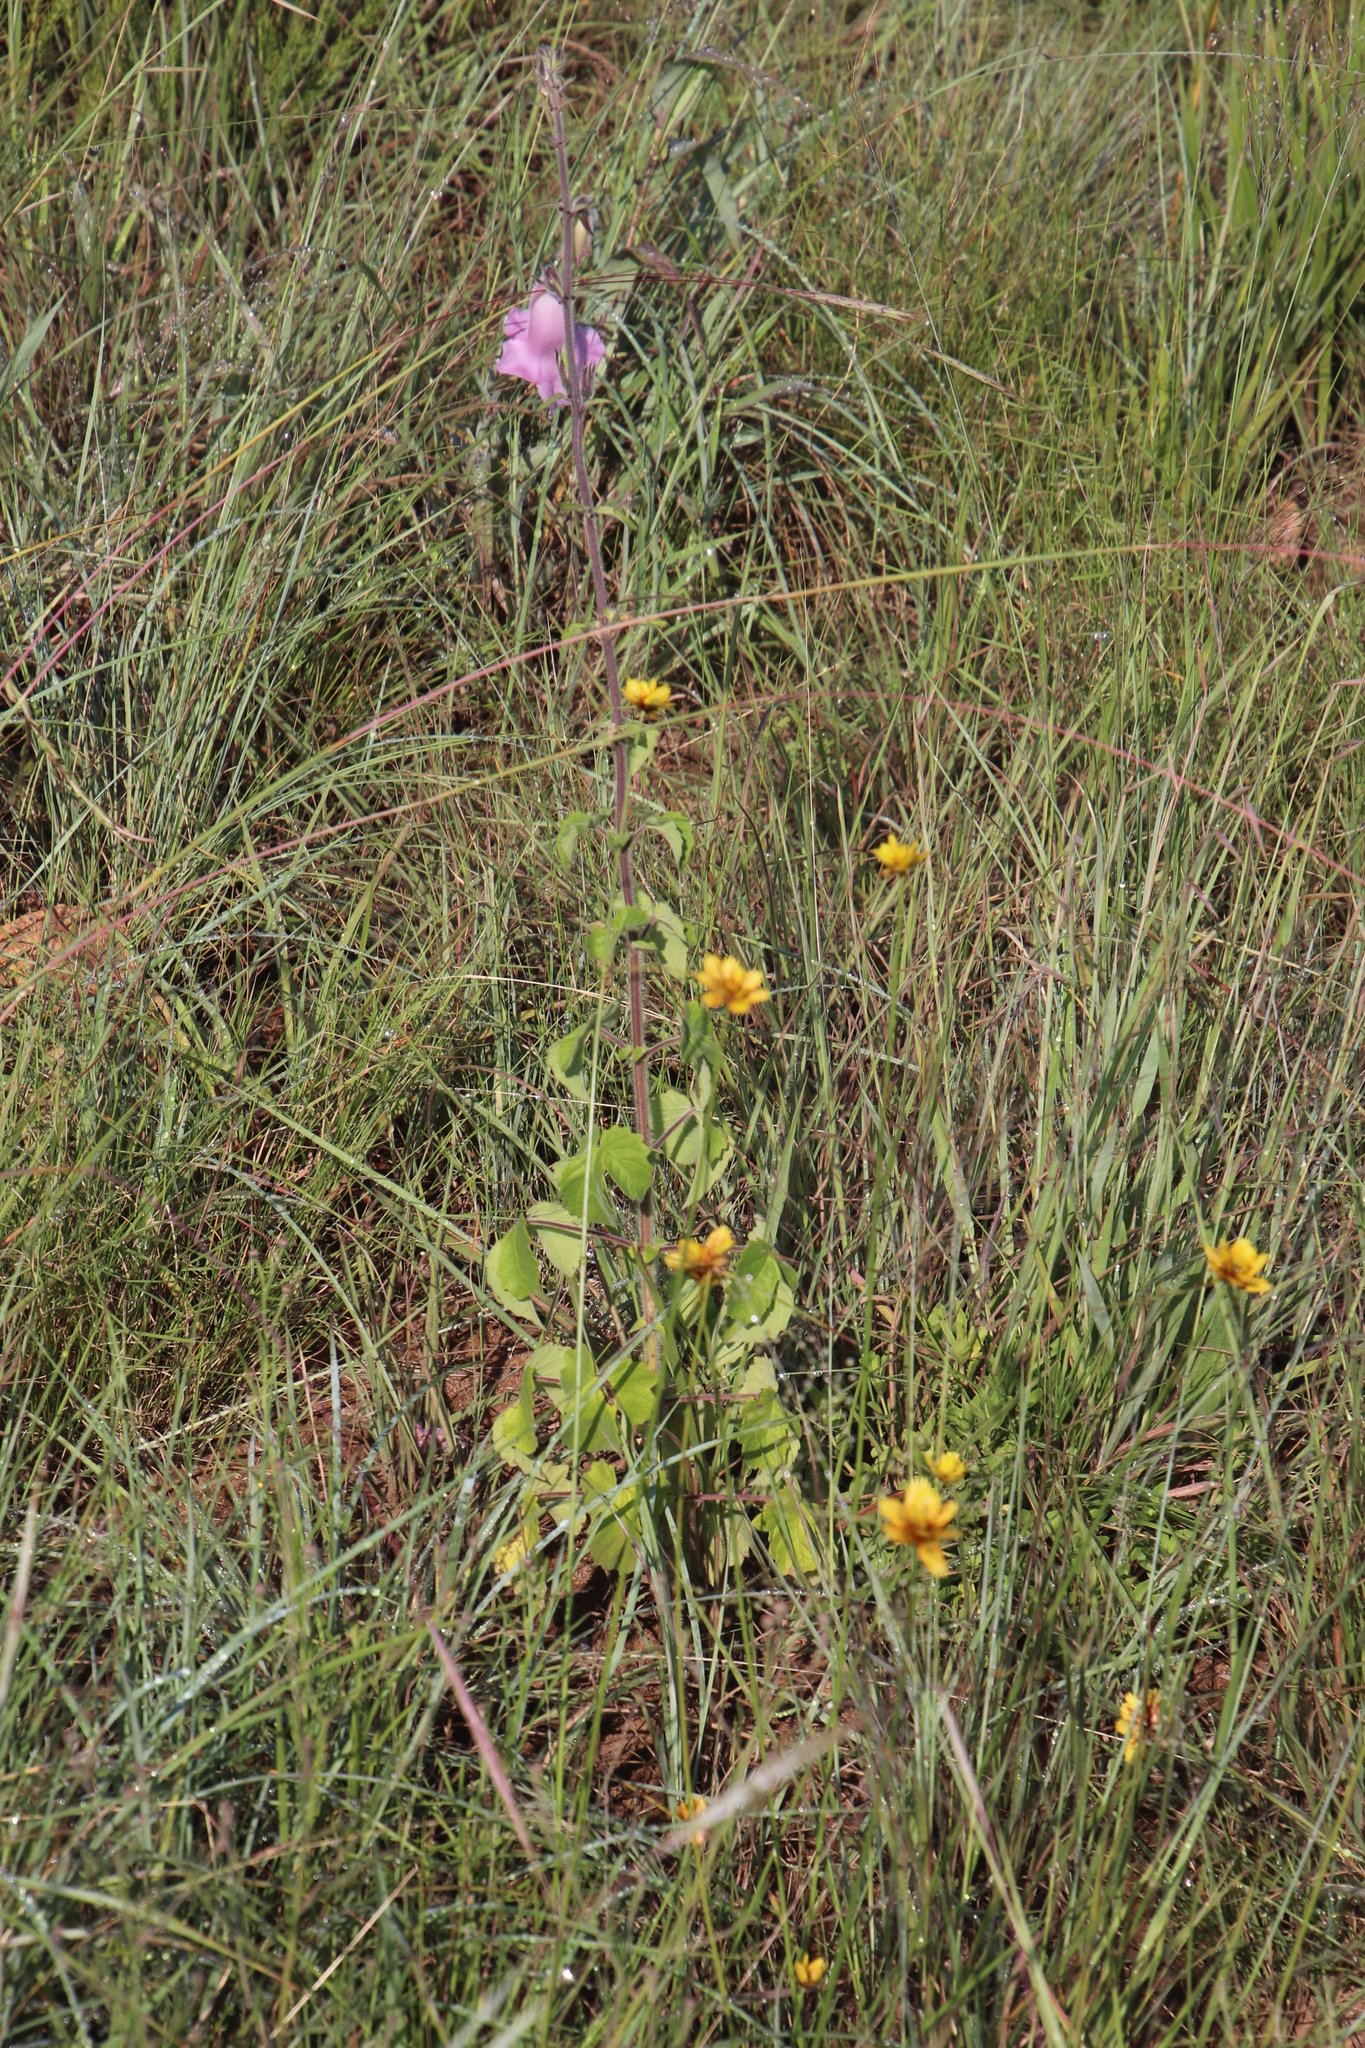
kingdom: Plantae
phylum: Tracheophyta
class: Magnoliopsida
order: Lamiales
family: Pedaliaceae
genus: Sesamum
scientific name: Sesamum trilobum
